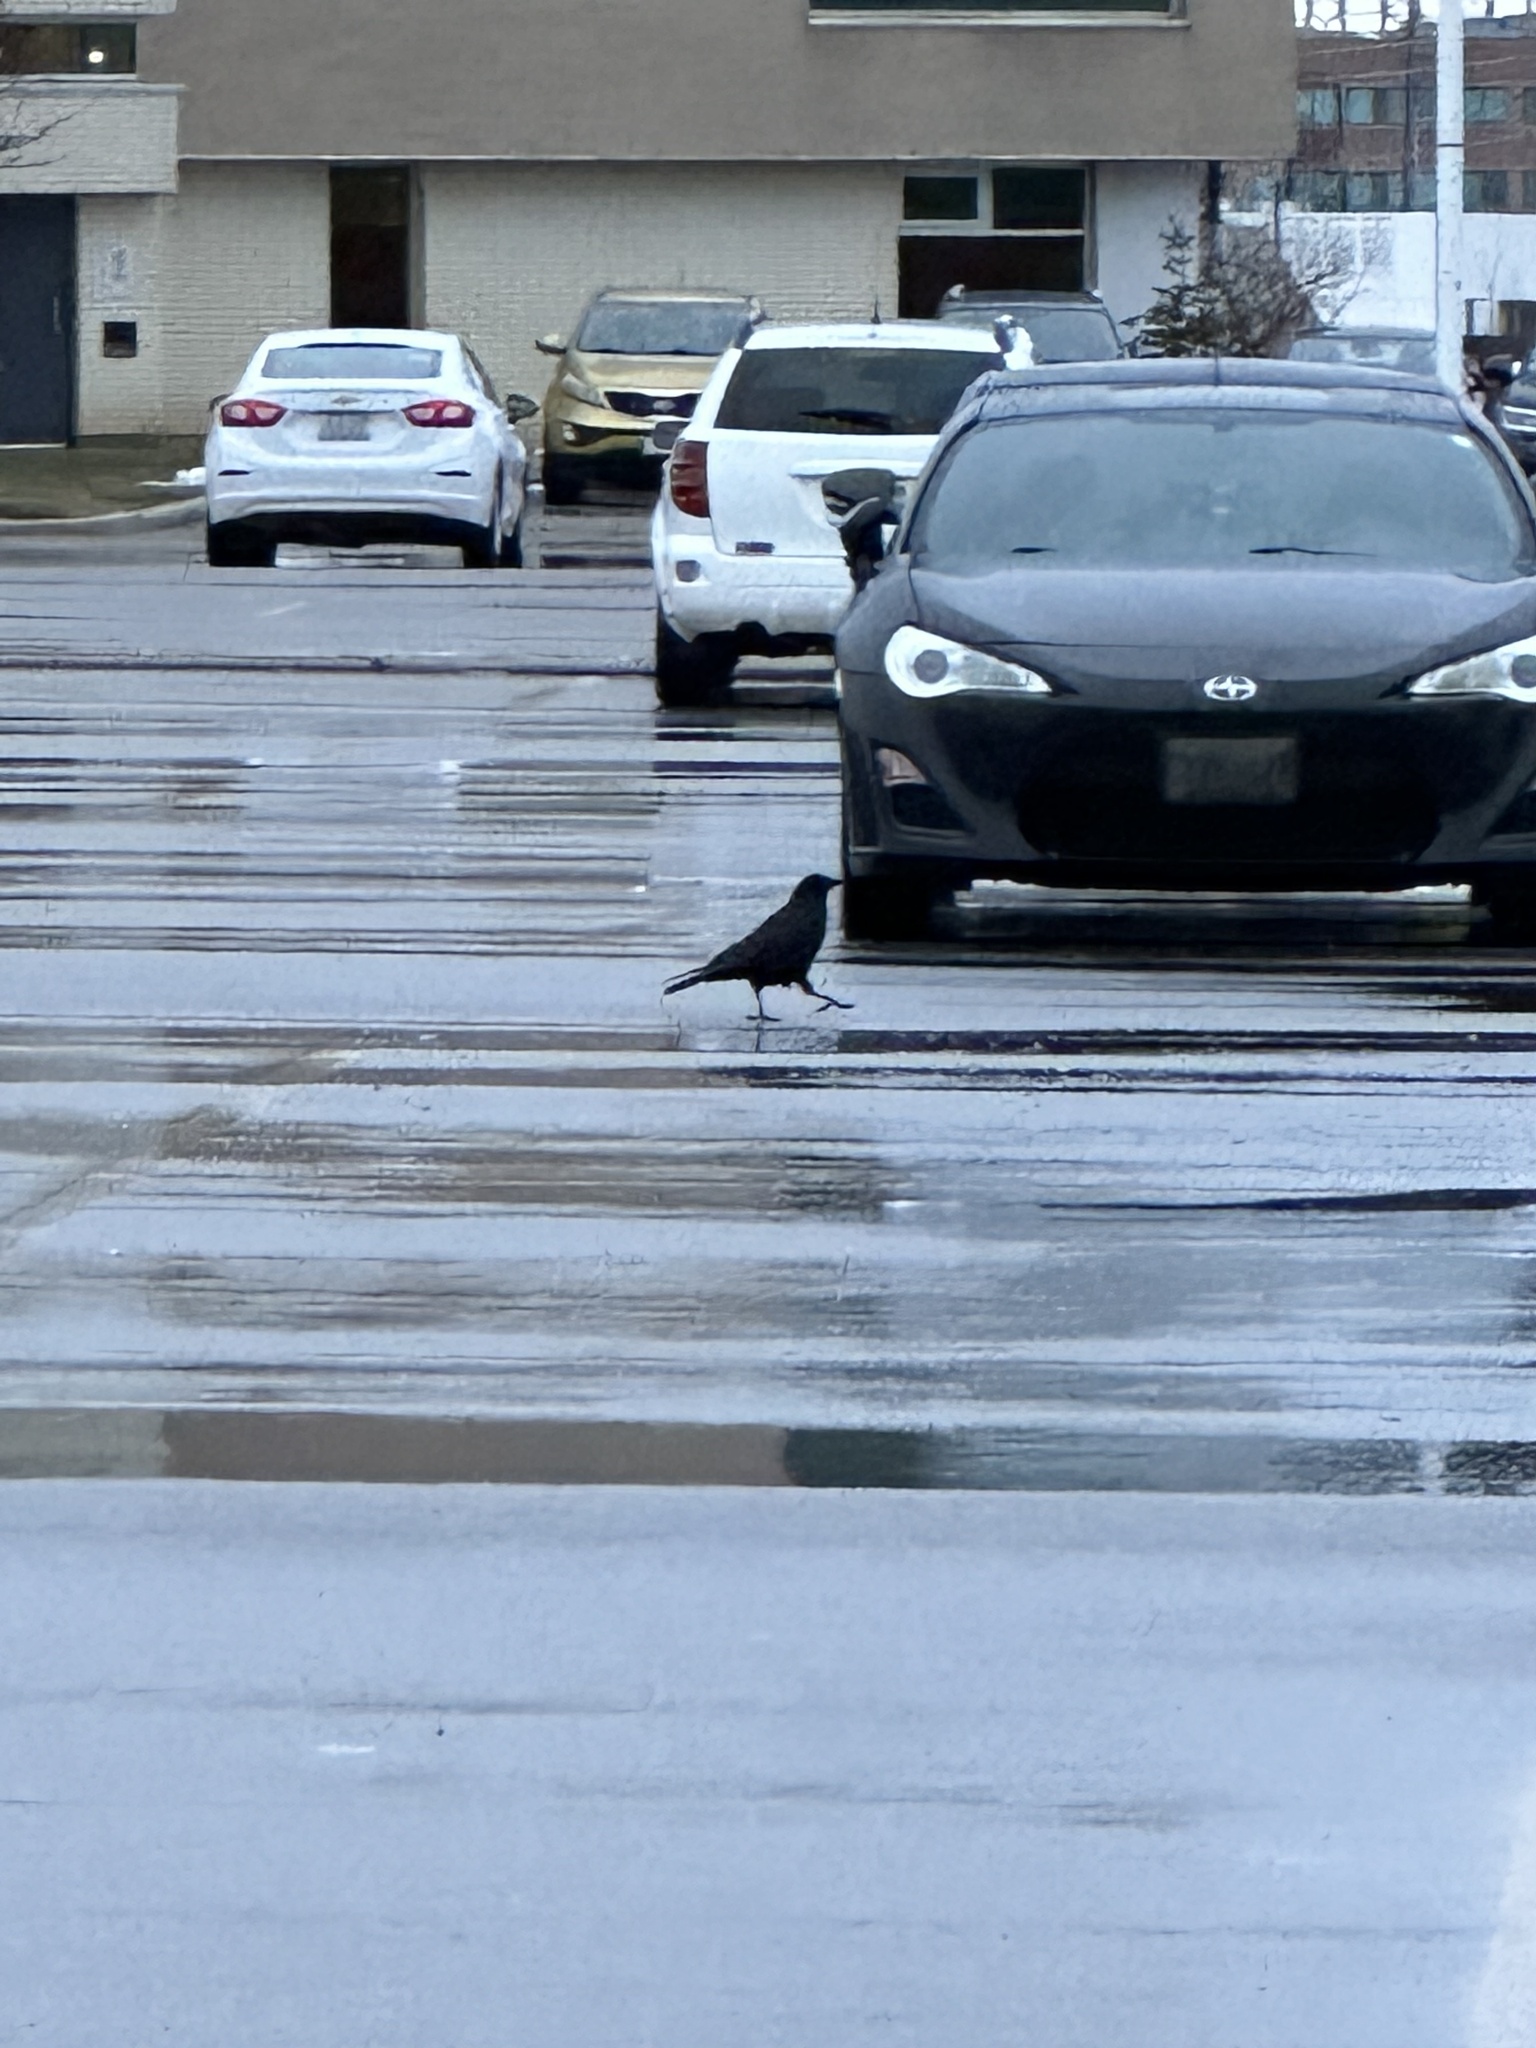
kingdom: Animalia
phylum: Chordata
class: Aves
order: Passeriformes
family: Corvidae
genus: Corvus
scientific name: Corvus brachyrhynchos
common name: American crow
